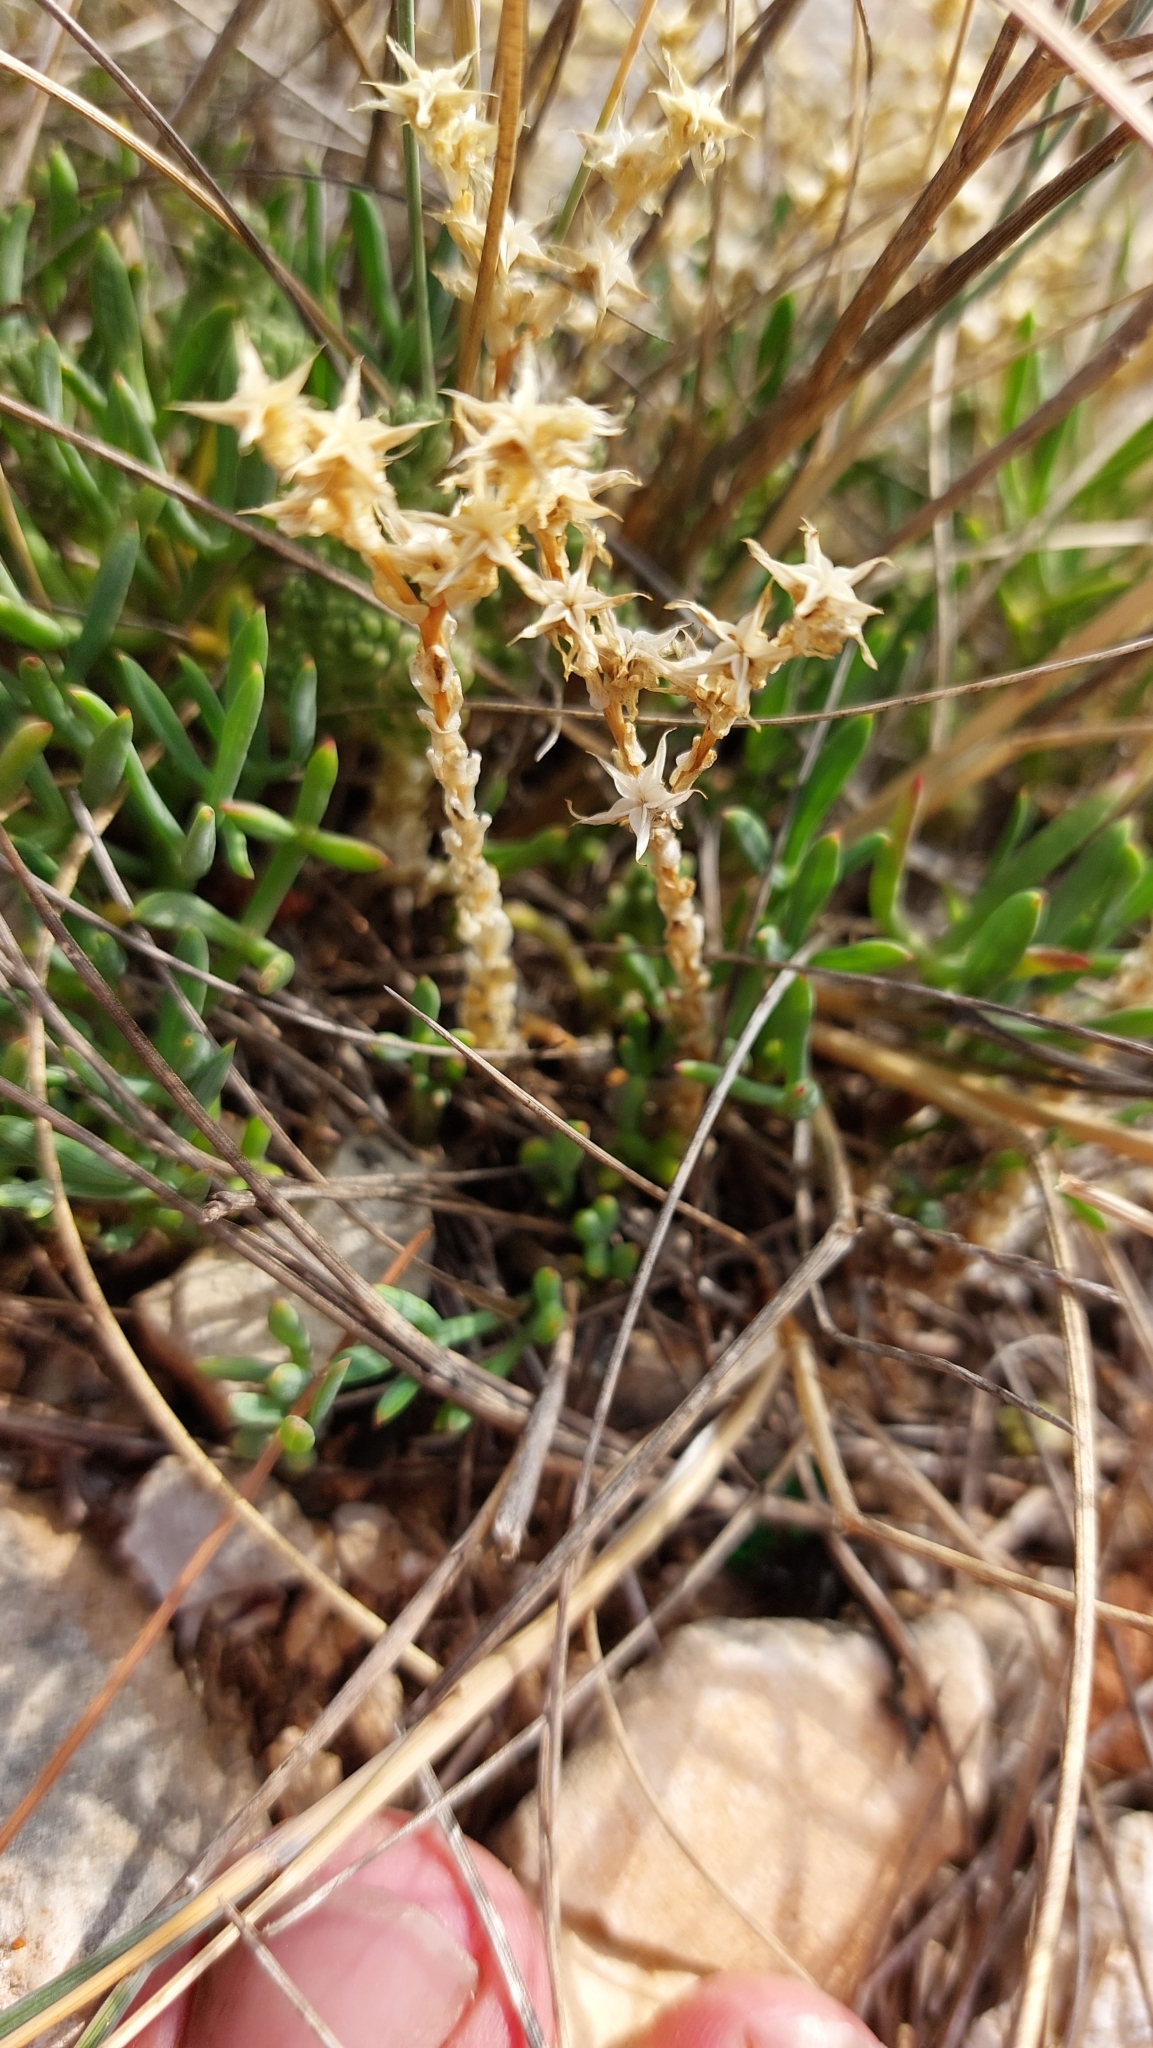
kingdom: Plantae
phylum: Tracheophyta
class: Magnoliopsida
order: Saxifragales
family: Crassulaceae
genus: Sedum
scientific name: Sedum acre
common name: Biting stonecrop
